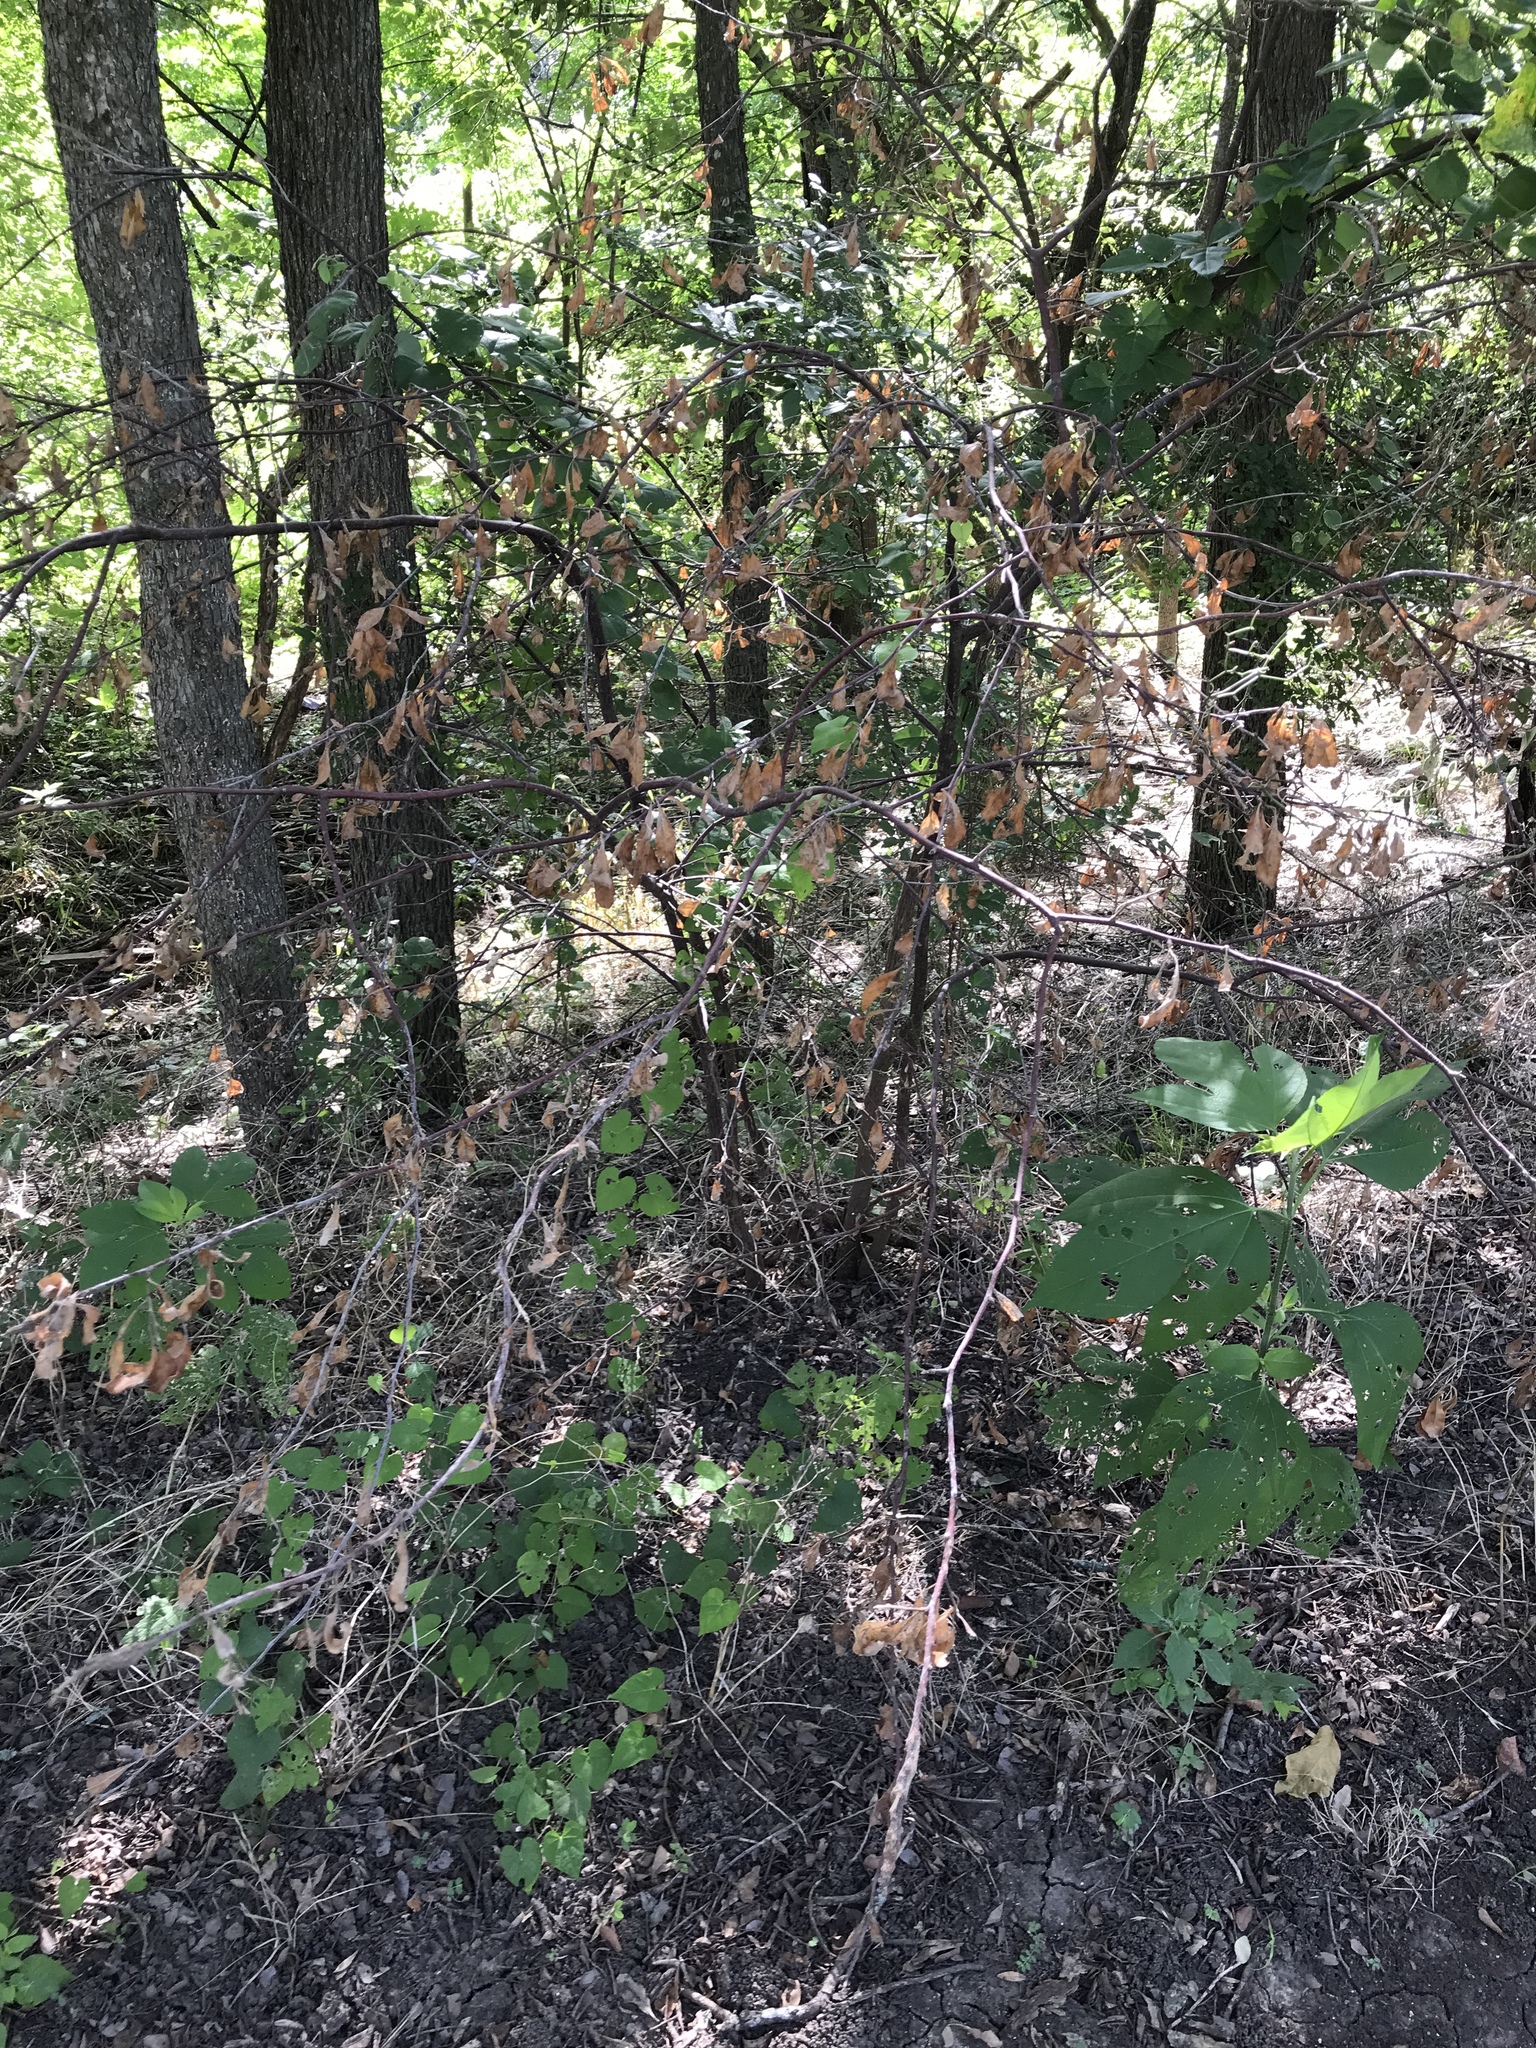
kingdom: Plantae
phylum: Tracheophyta
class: Magnoliopsida
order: Ericales
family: Sapotaceae
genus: Sideroxylon
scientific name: Sideroxylon lanuginosum
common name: Chittamwood
